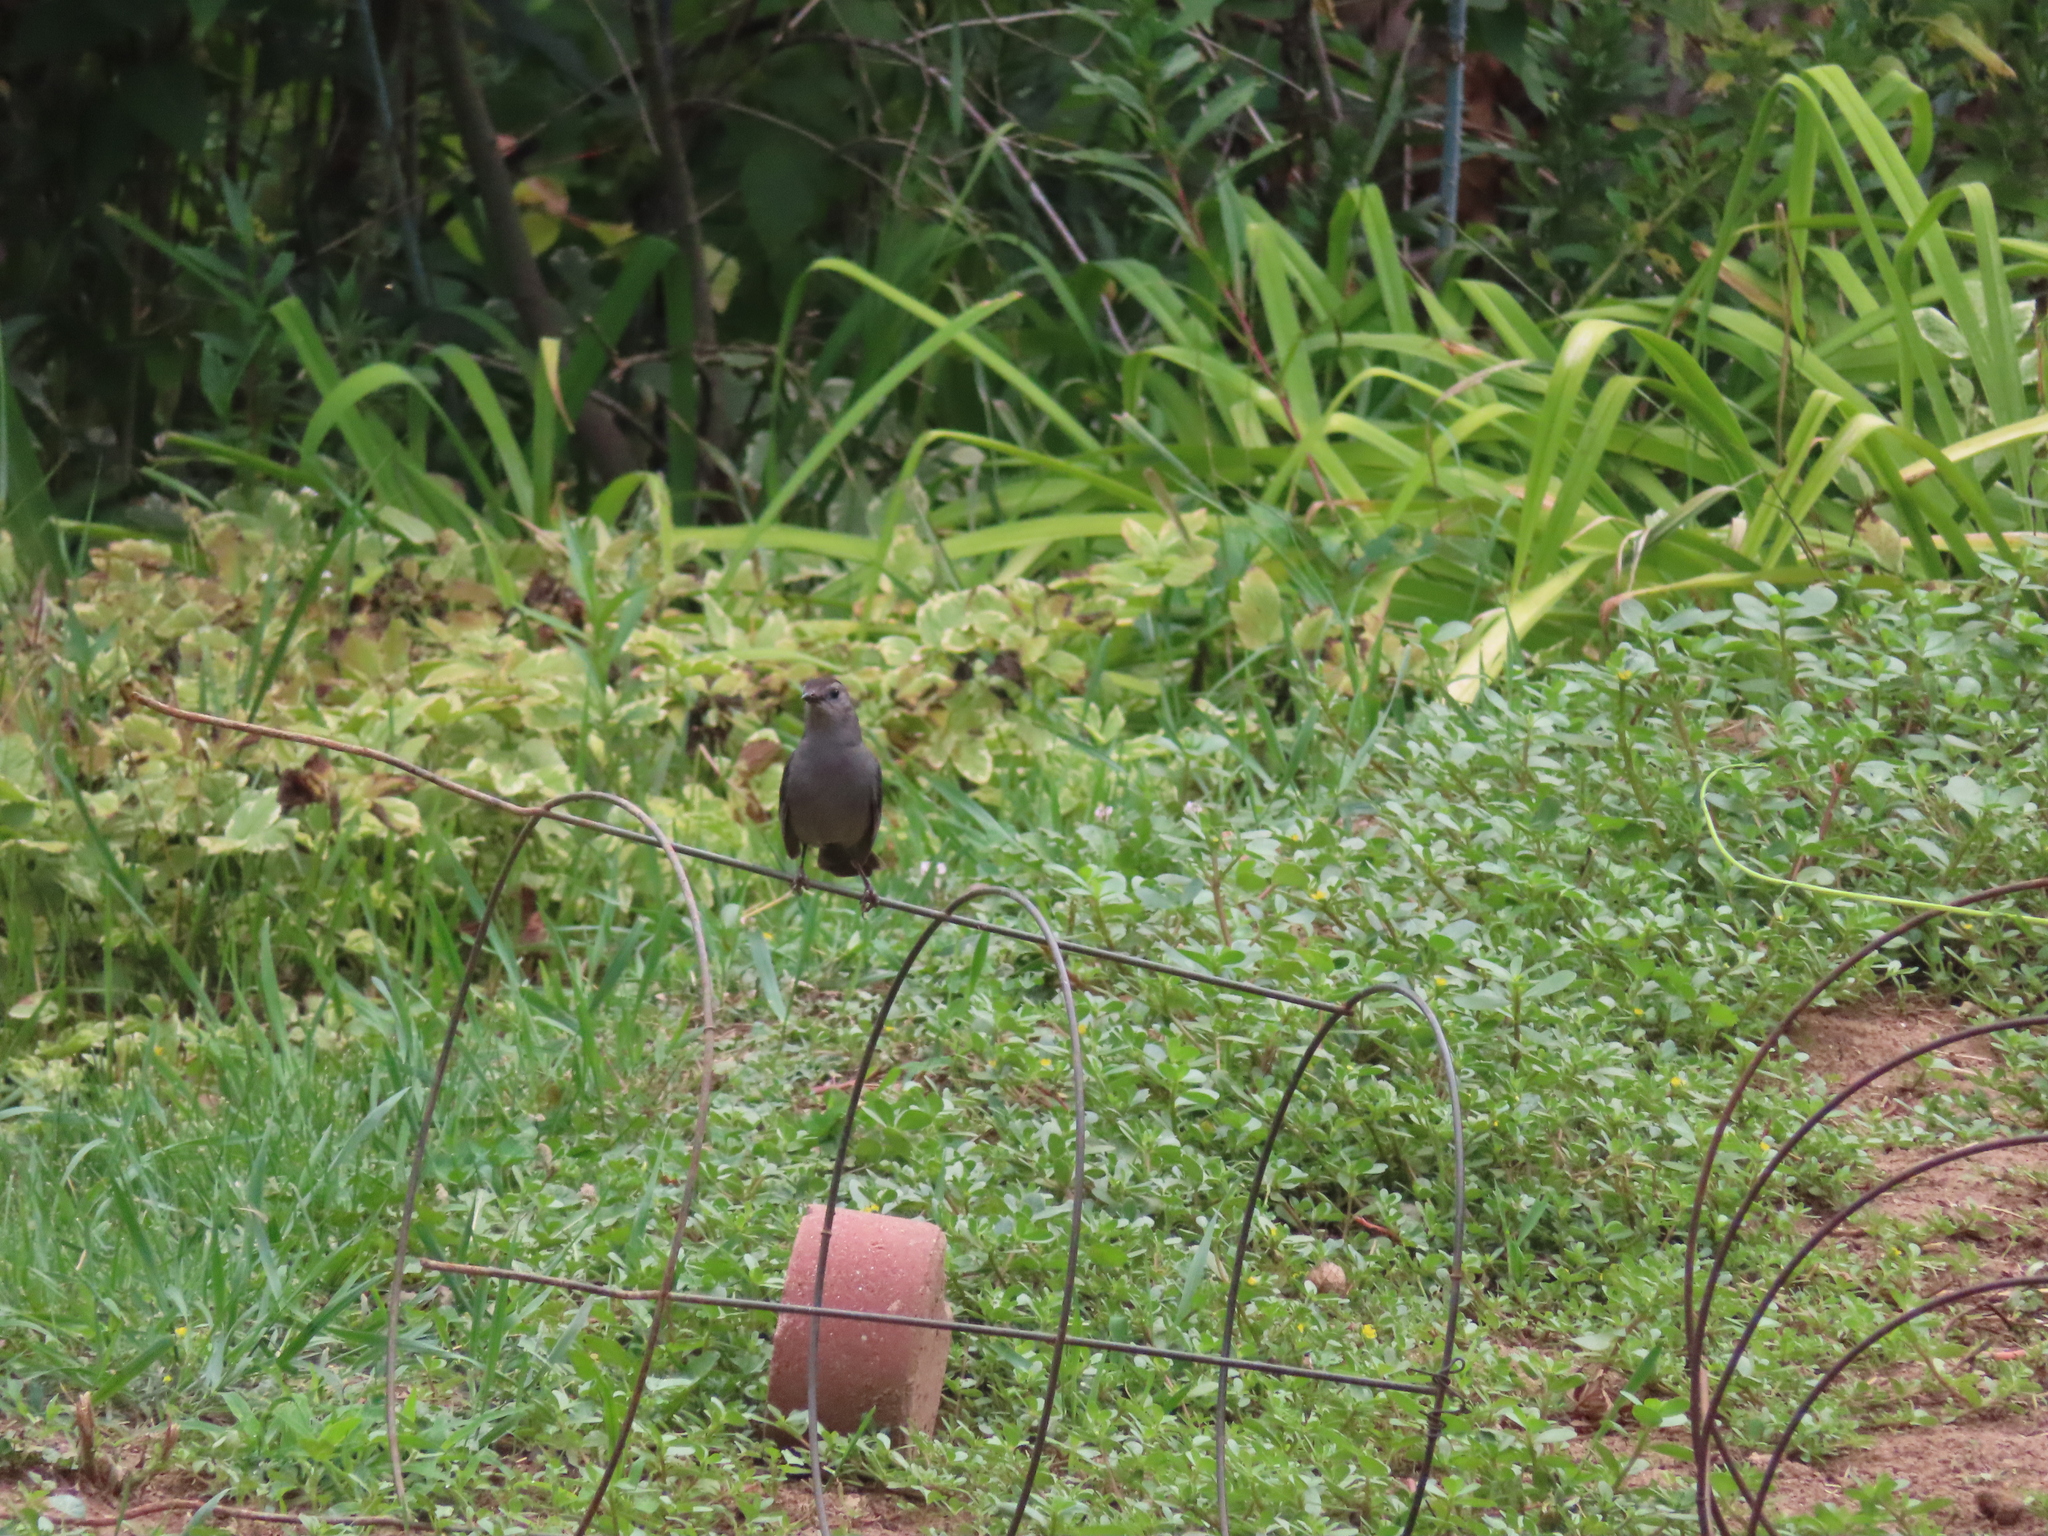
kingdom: Animalia
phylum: Chordata
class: Aves
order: Passeriformes
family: Mimidae
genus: Dumetella
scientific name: Dumetella carolinensis
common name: Gray catbird
